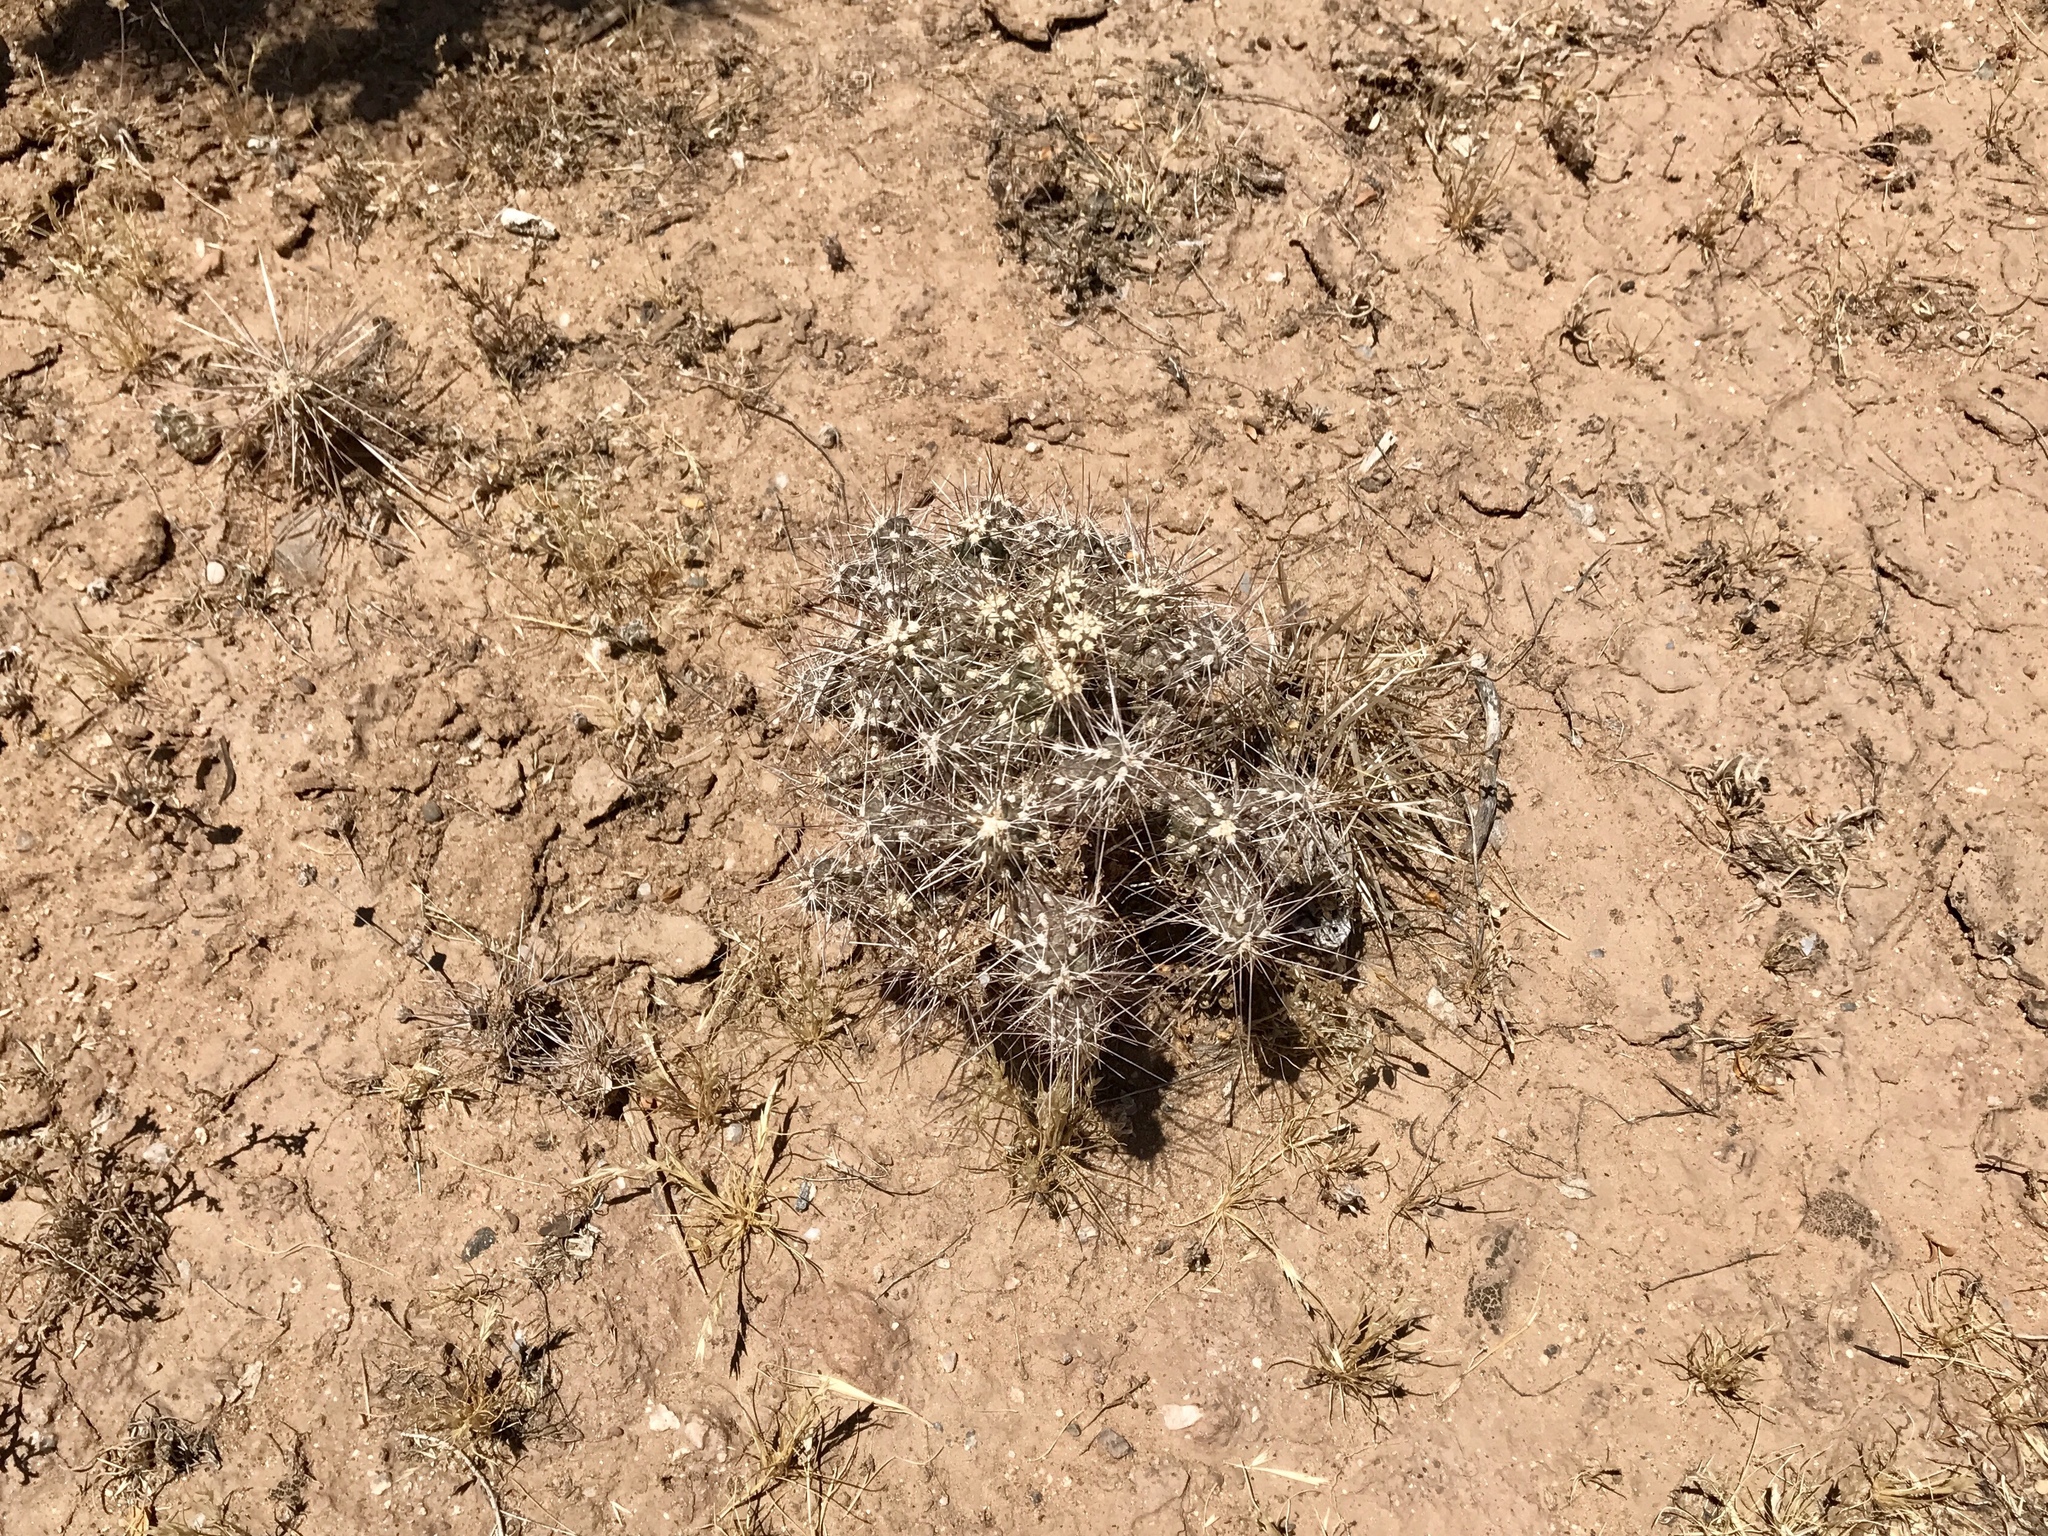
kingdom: Plantae
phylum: Tracheophyta
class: Magnoliopsida
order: Caryophyllales
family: Cactaceae
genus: Cylindropuntia
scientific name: Cylindropuntia fulgida
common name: Jumping cholla
